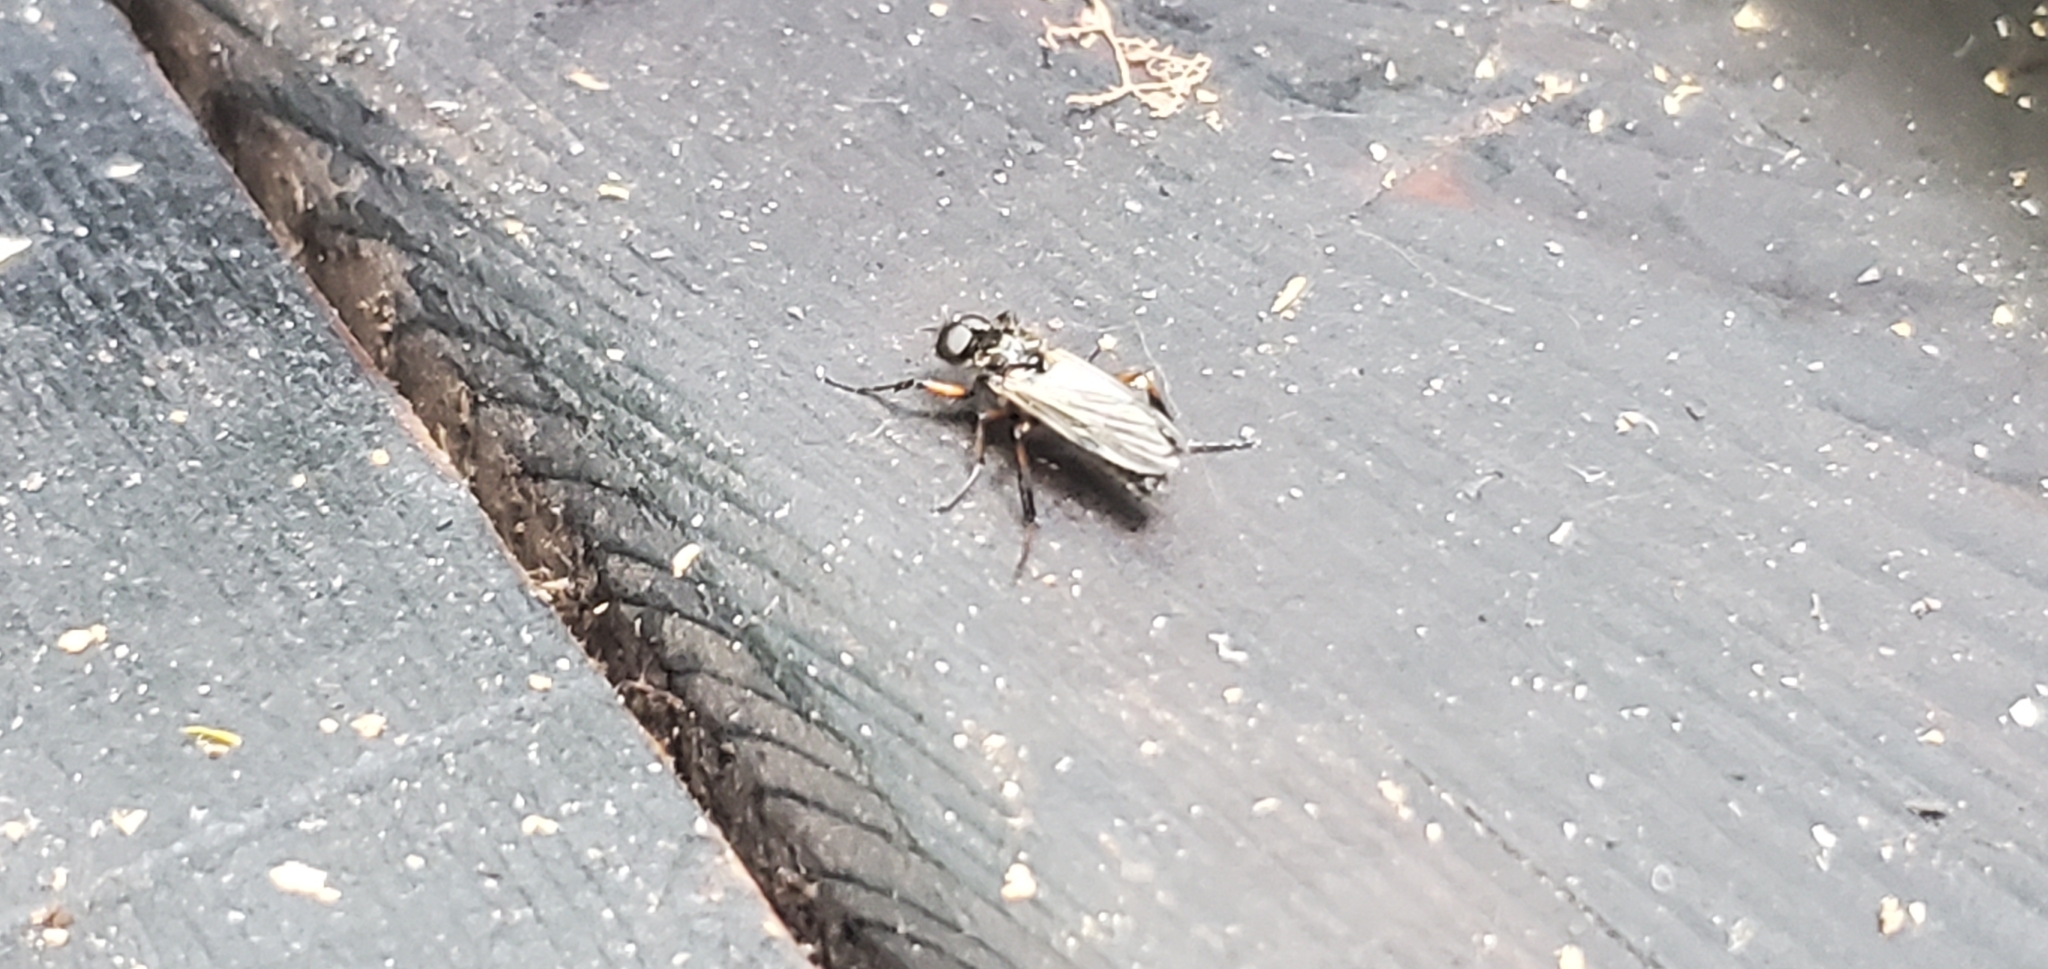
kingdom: Animalia
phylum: Arthropoda
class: Insecta
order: Diptera
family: Bibionidae
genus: Bibio
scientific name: Bibio
